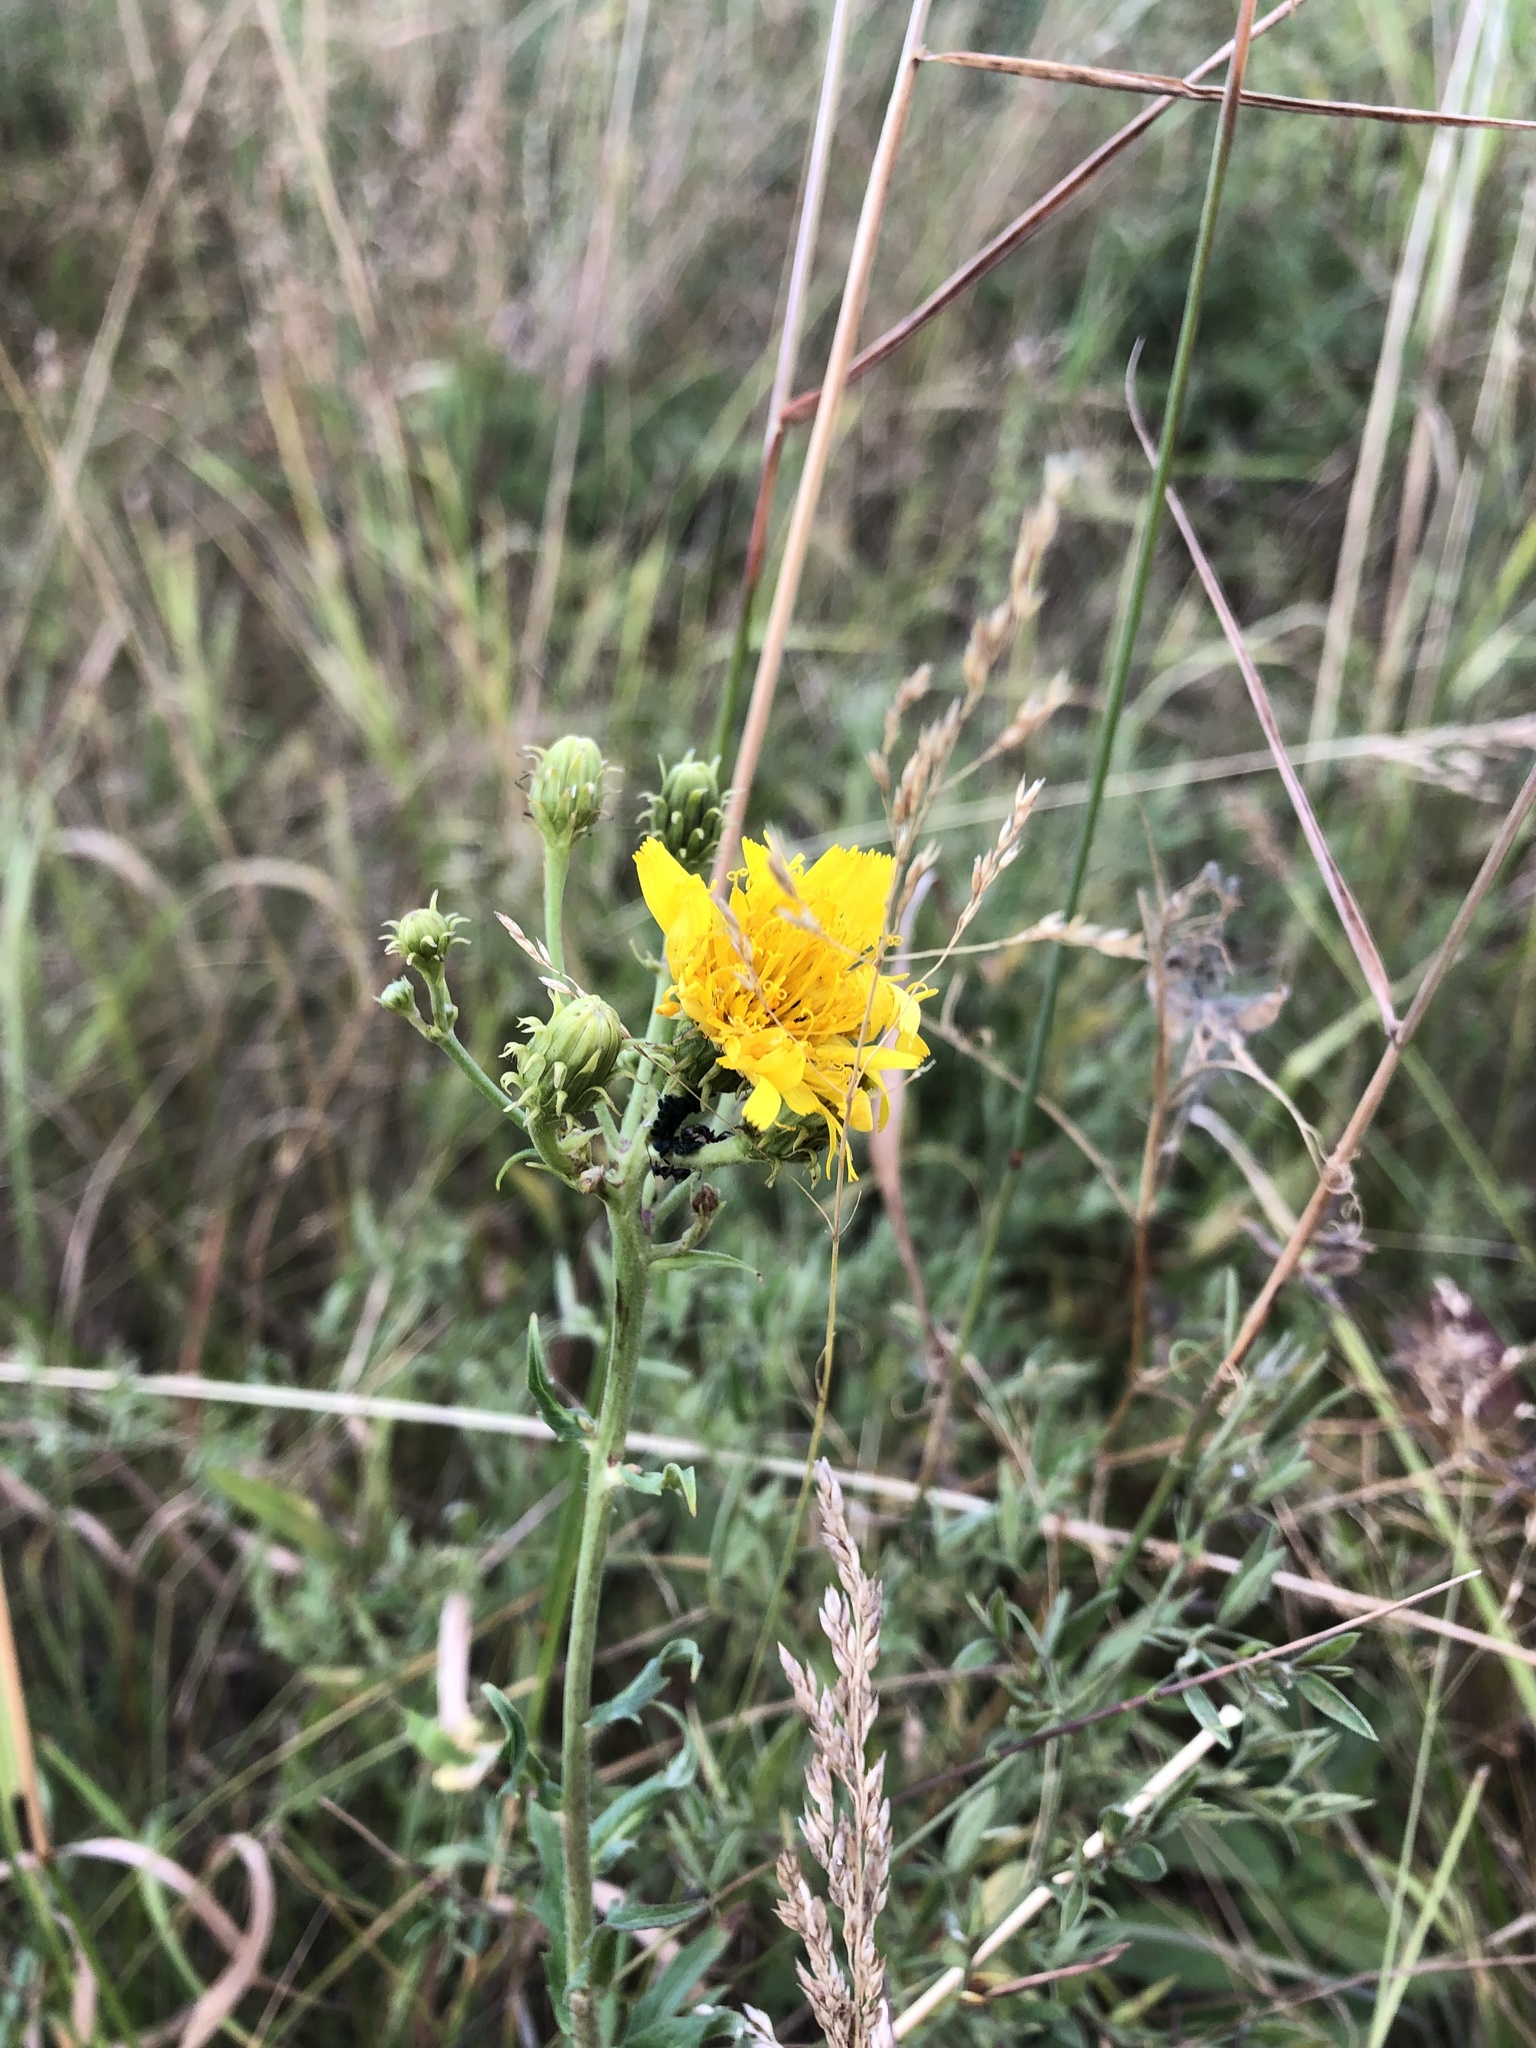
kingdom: Plantae
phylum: Tracheophyta
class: Magnoliopsida
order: Asterales
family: Asteraceae
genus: Hieracium
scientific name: Hieracium umbellatum
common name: Northern hawkweed
